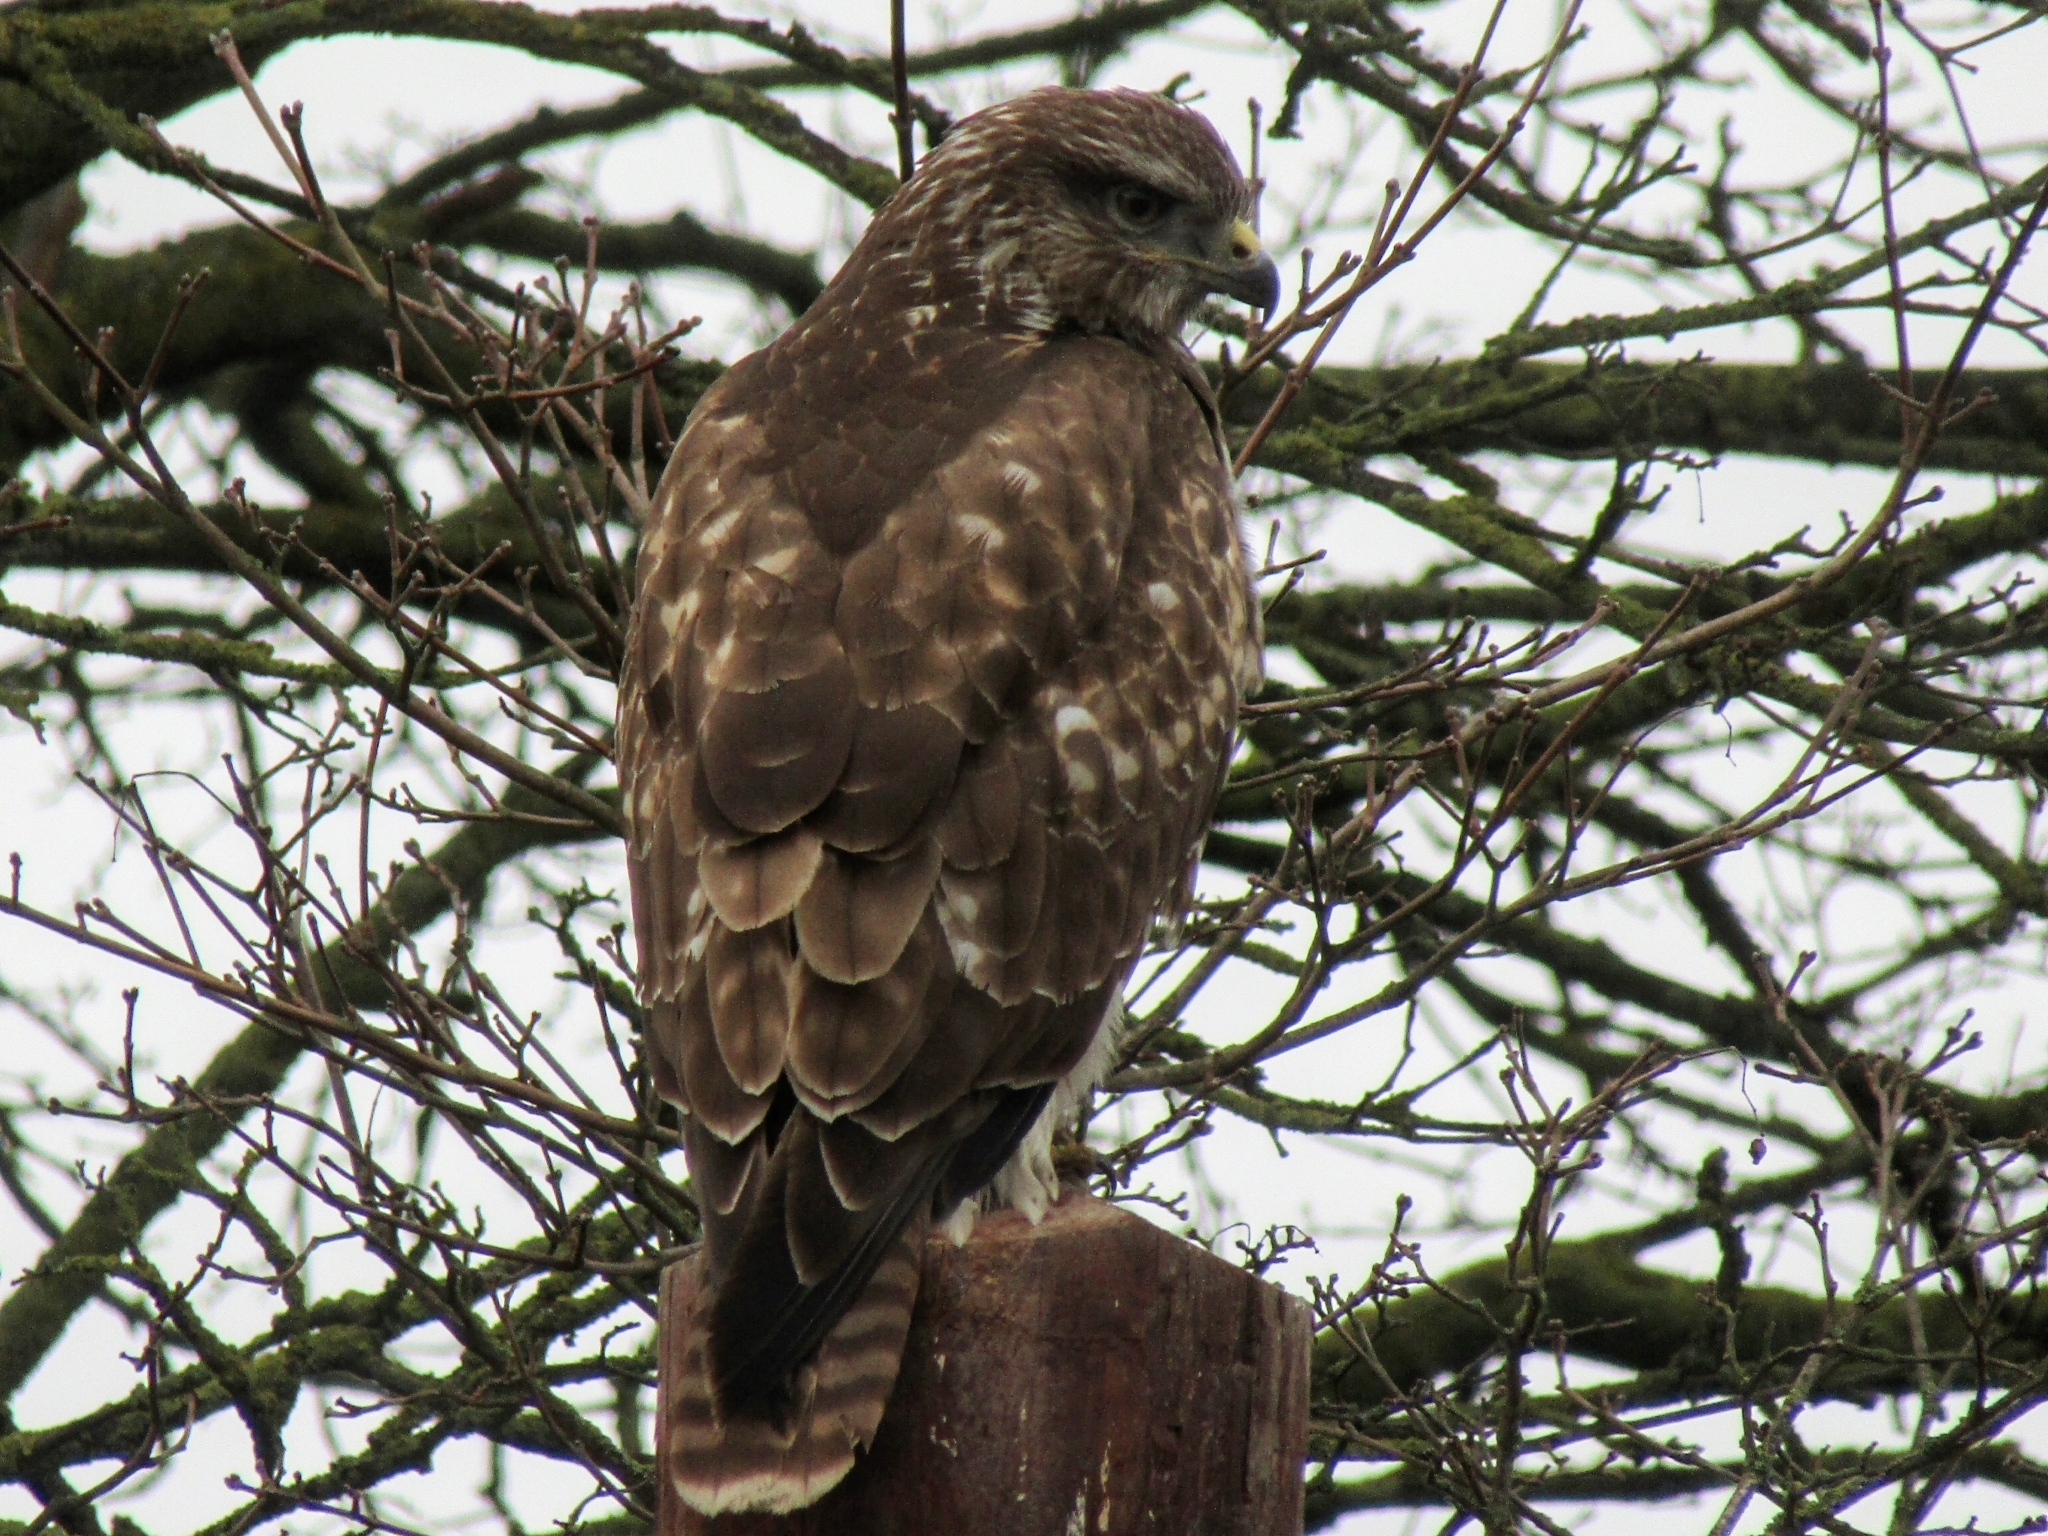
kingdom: Animalia
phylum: Chordata
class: Aves
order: Accipitriformes
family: Accipitridae
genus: Buteo
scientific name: Buteo buteo
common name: Common buzzard
